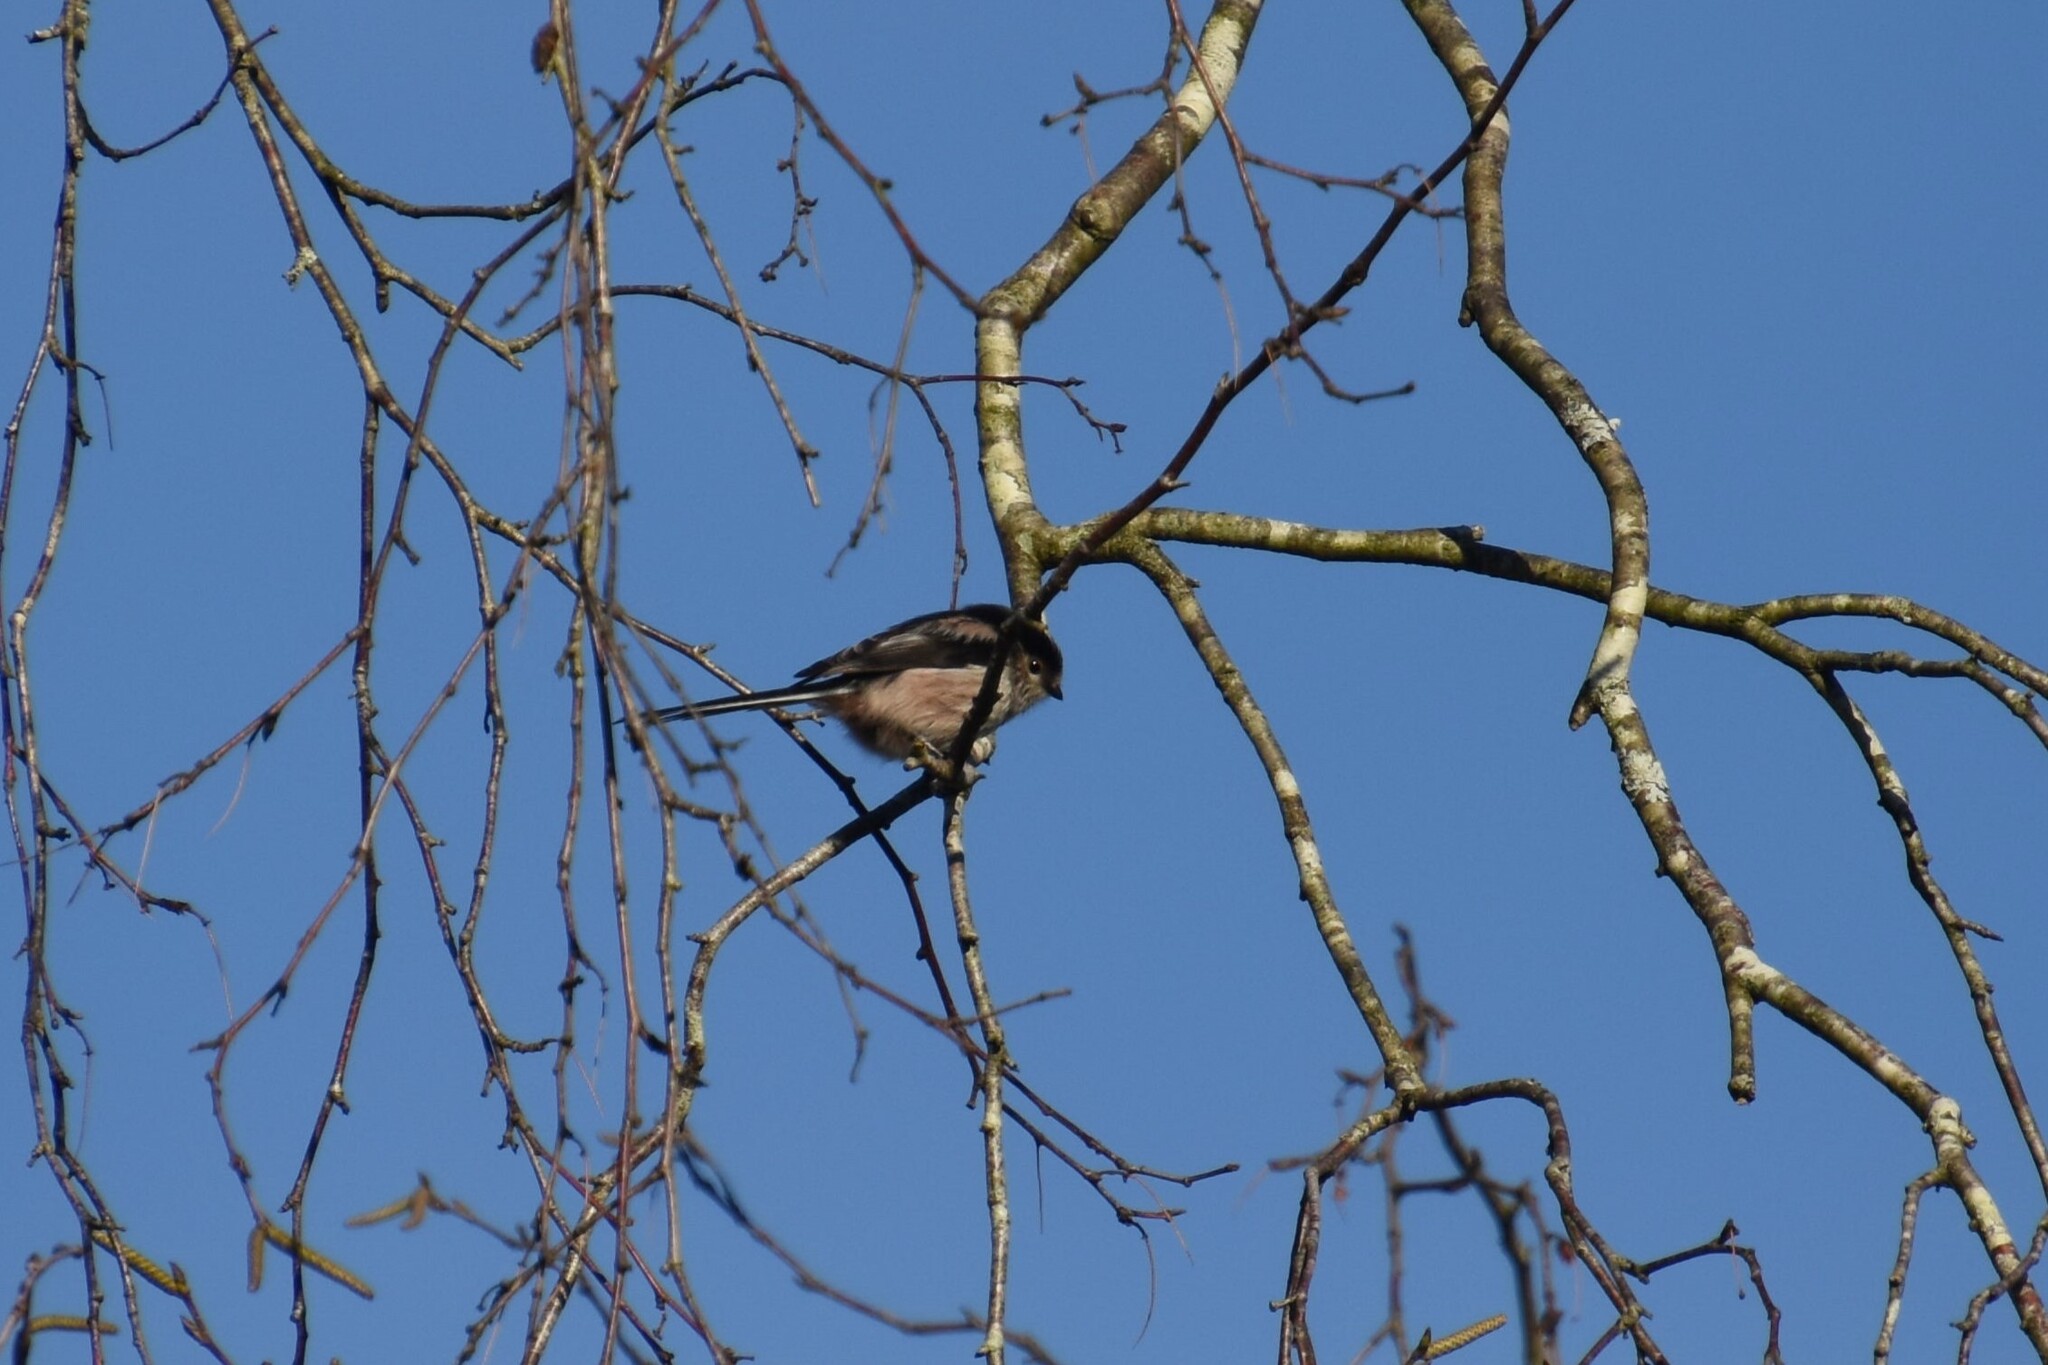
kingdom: Animalia
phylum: Chordata
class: Aves
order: Passeriformes
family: Aegithalidae
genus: Aegithalos
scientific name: Aegithalos caudatus
